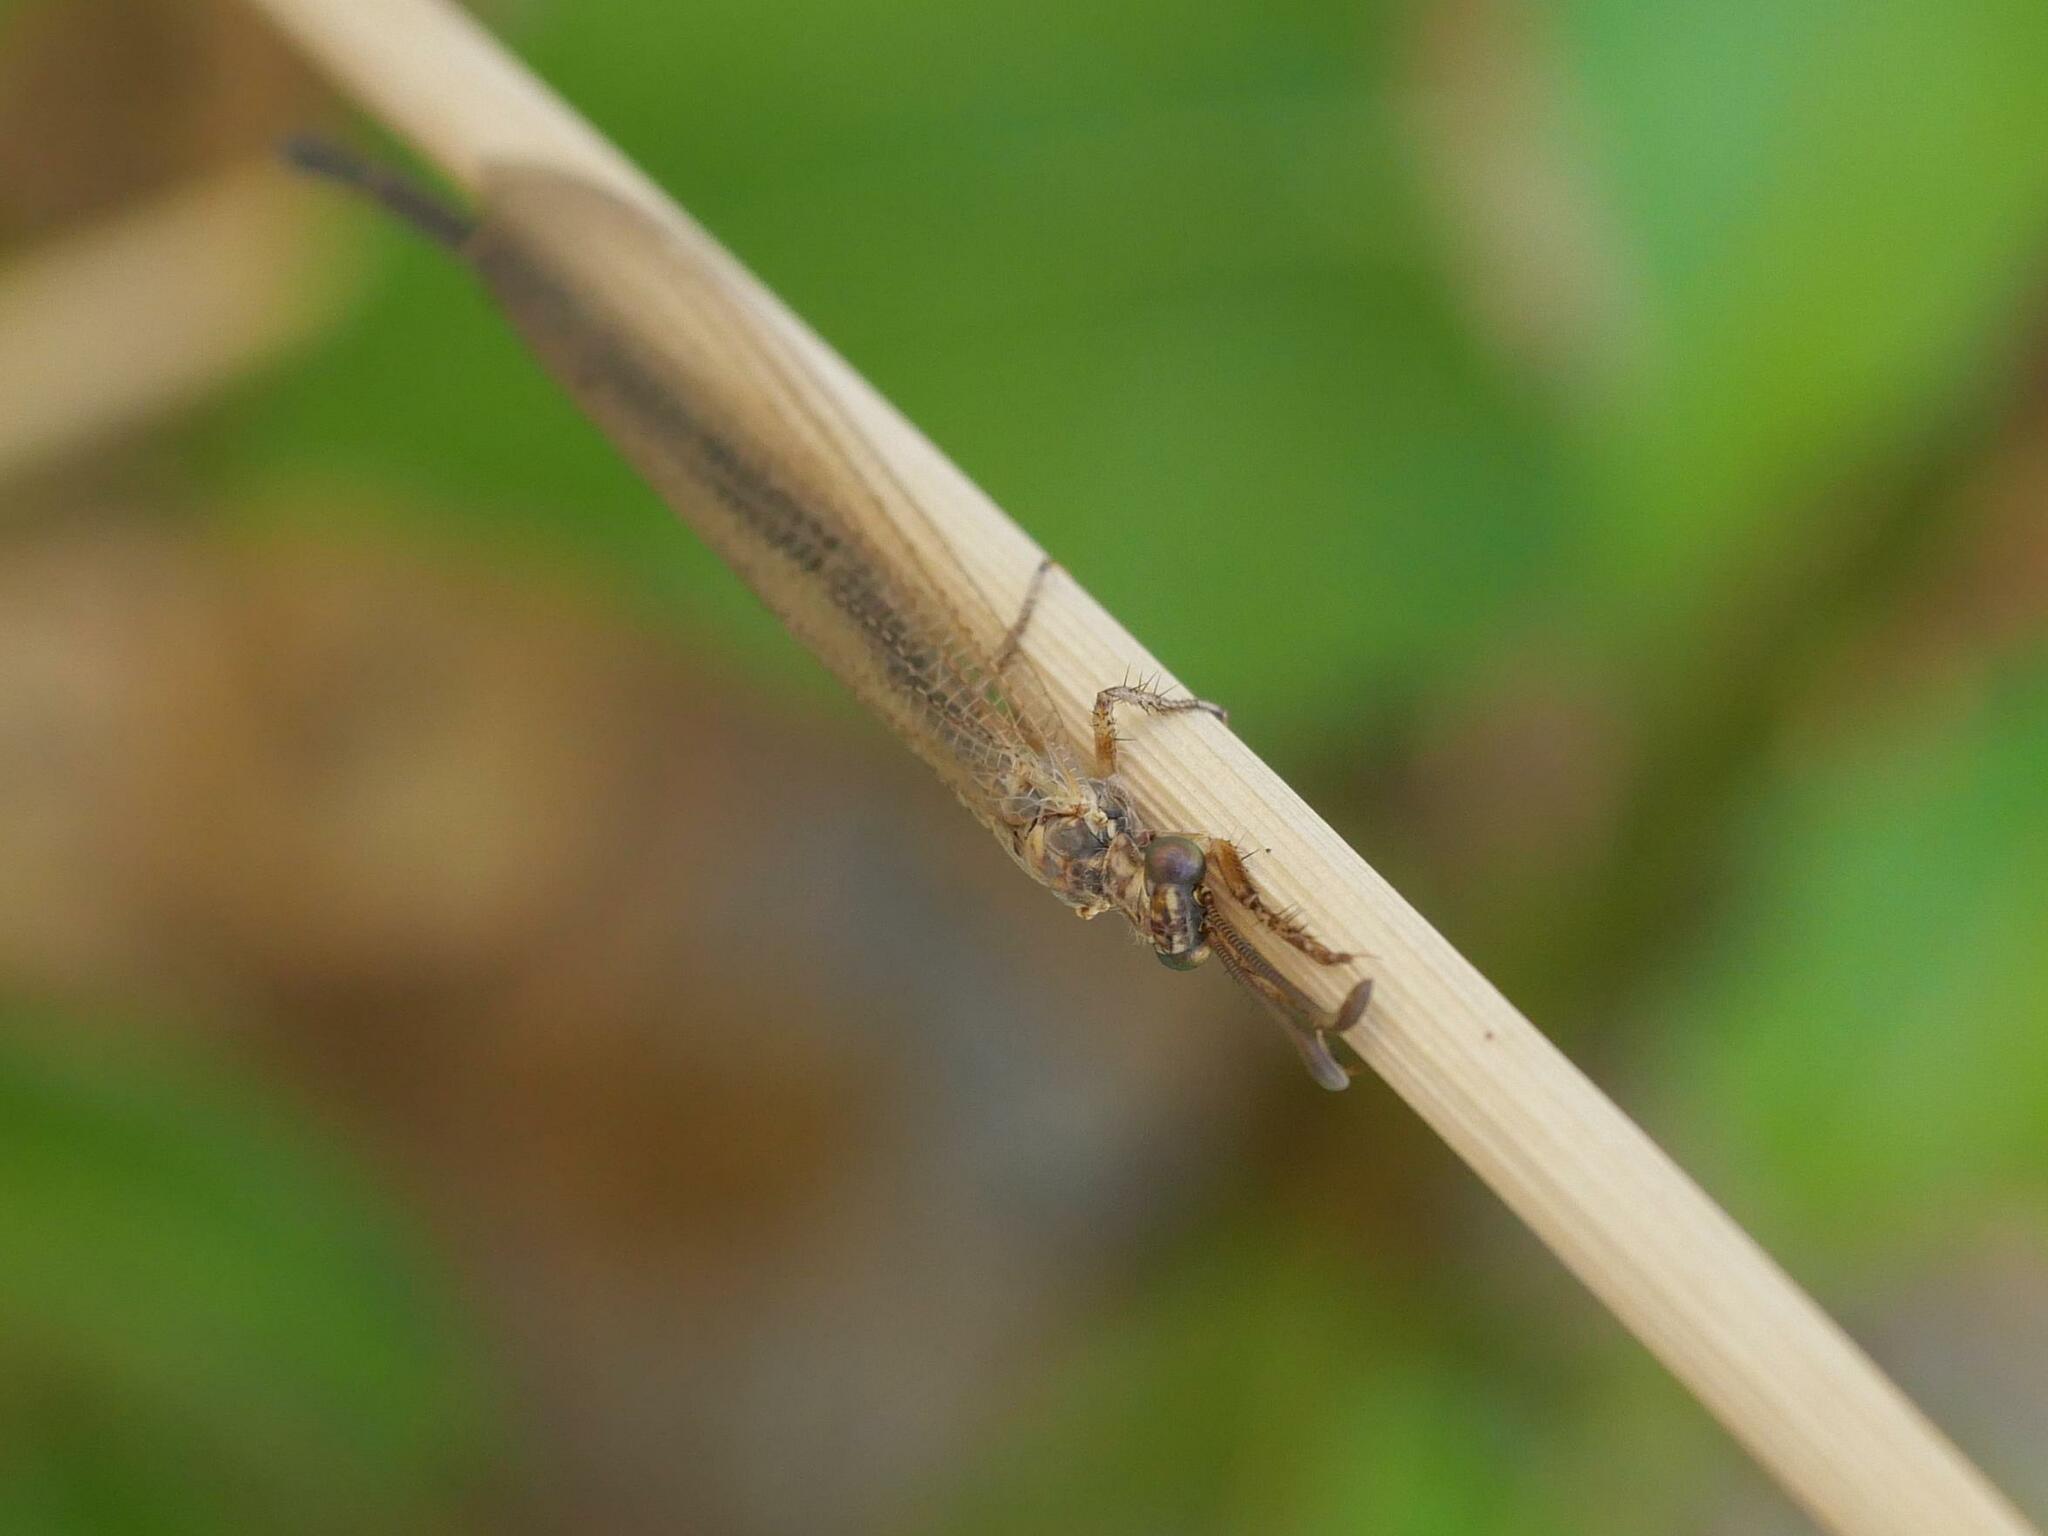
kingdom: Animalia
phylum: Arthropoda
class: Insecta
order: Neuroptera
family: Myrmeleontidae
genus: Creoleon
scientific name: Creoleon plumbeus
